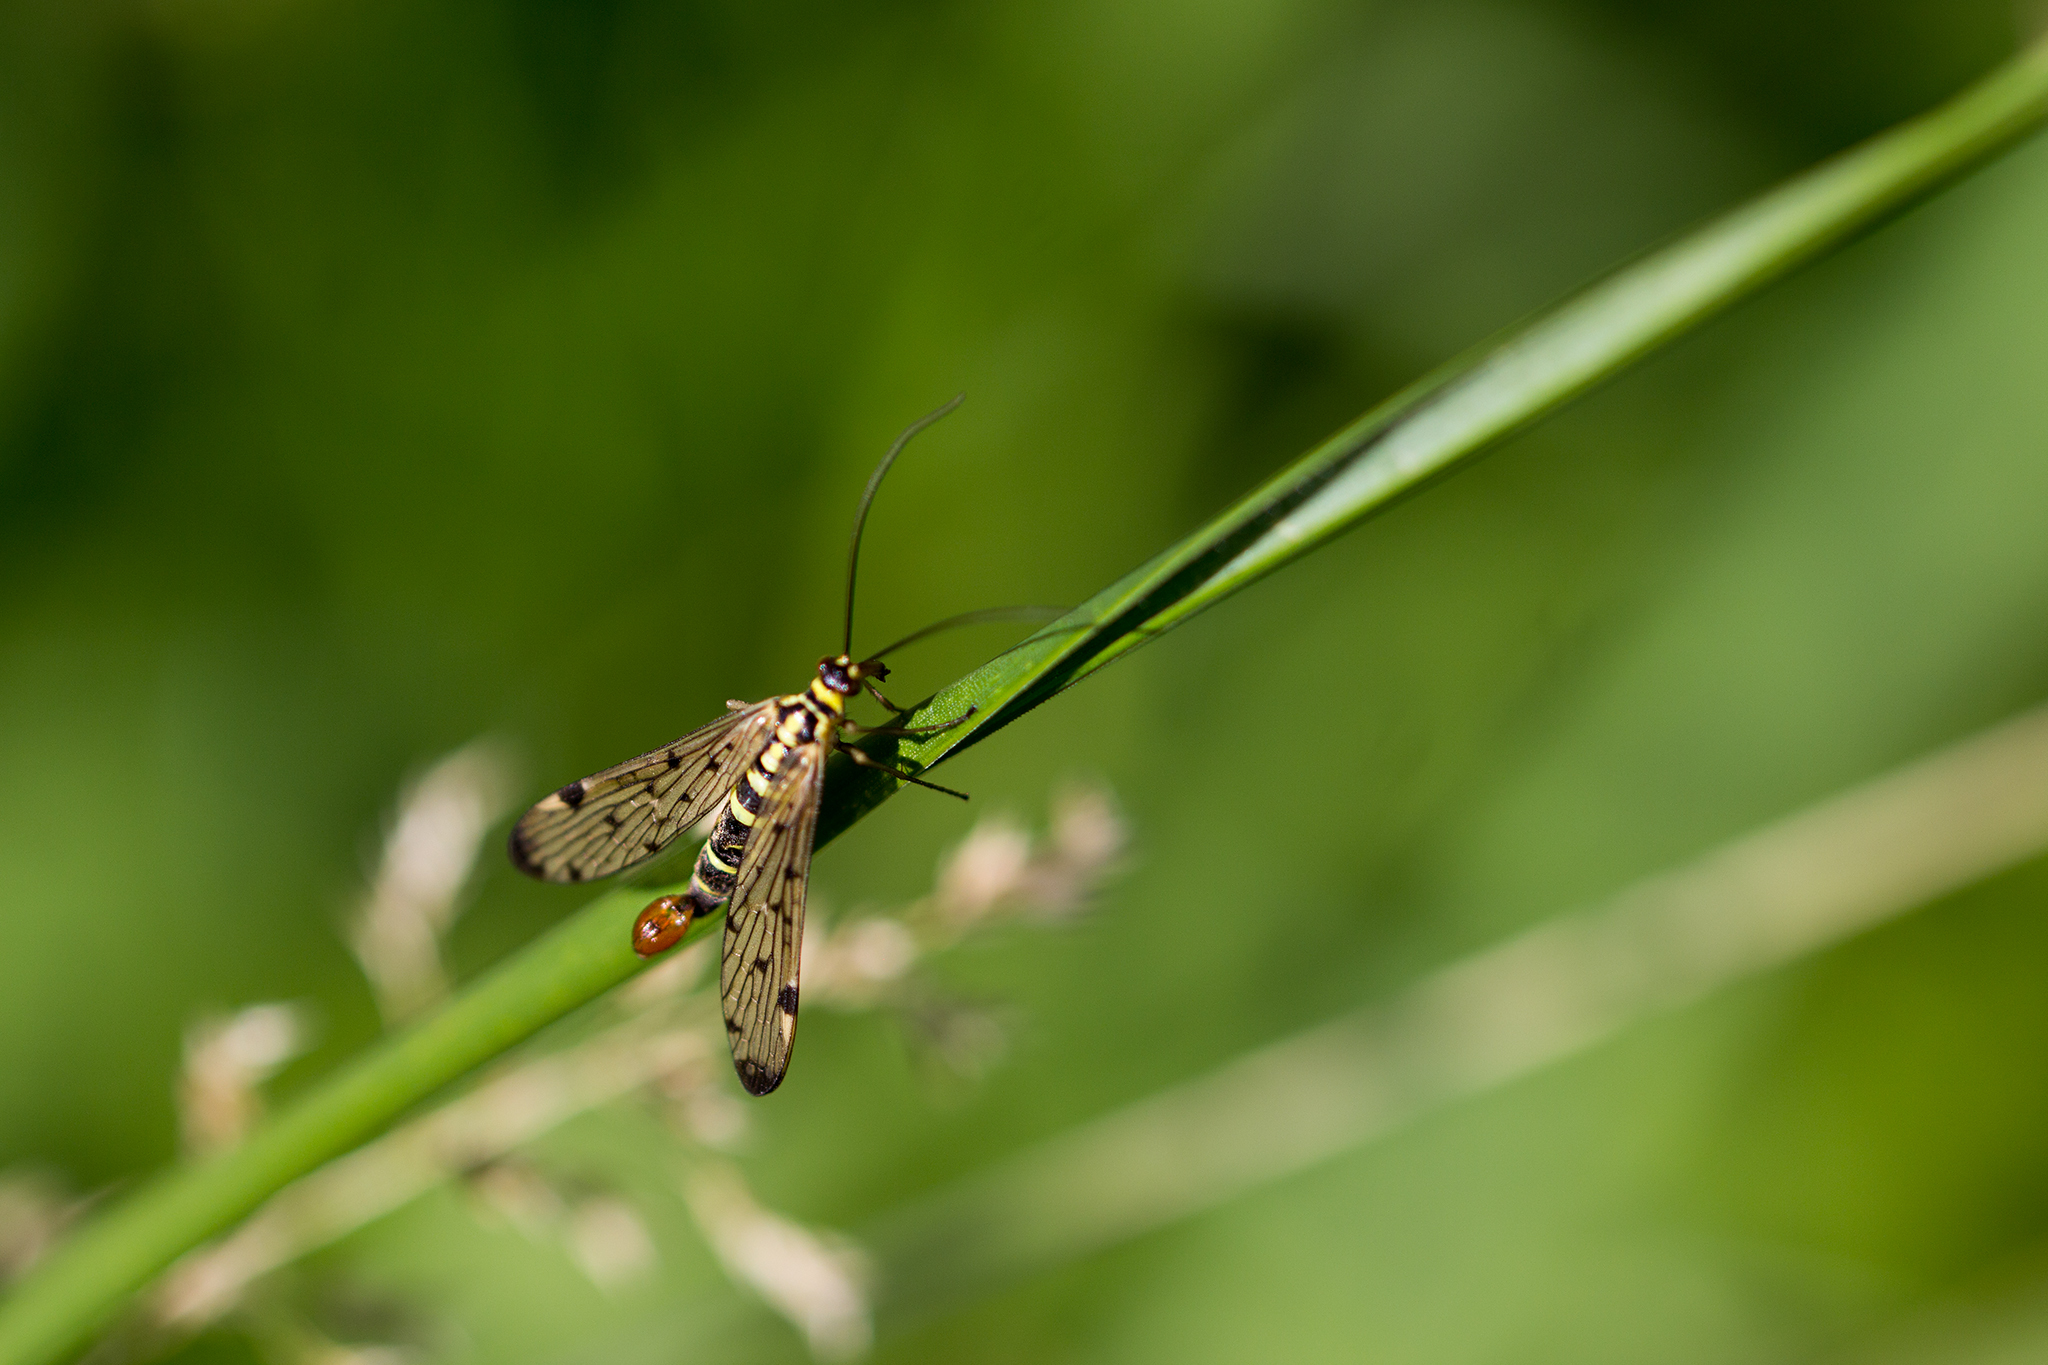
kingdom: Animalia
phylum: Arthropoda
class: Insecta
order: Mecoptera
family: Panorpidae
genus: Panorpa
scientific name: Panorpa communis
